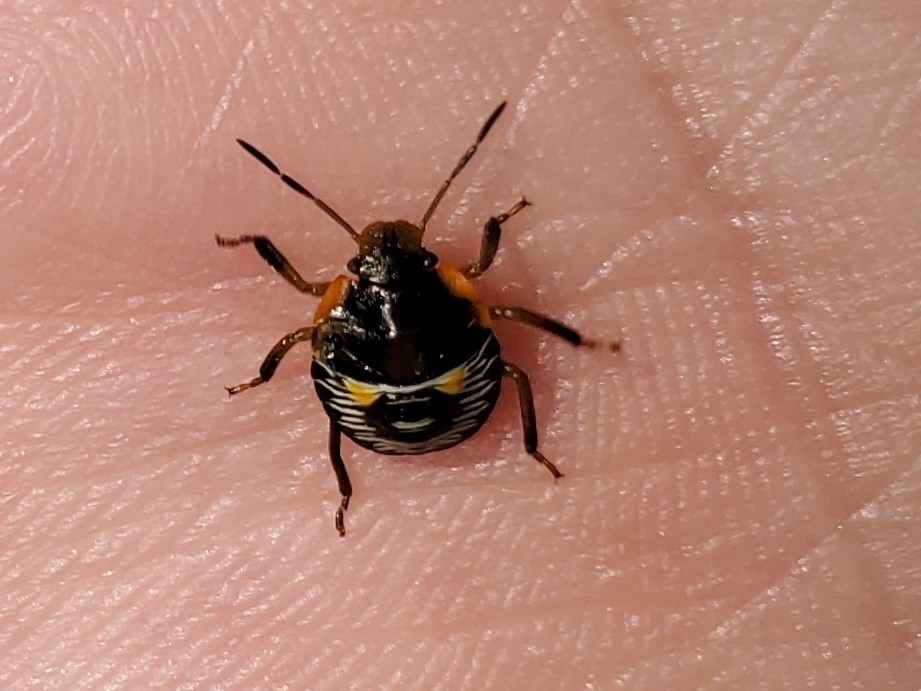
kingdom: Animalia
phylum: Arthropoda
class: Insecta
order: Hemiptera
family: Pentatomidae
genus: Chinavia
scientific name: Chinavia hilaris
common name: Green stink bug
